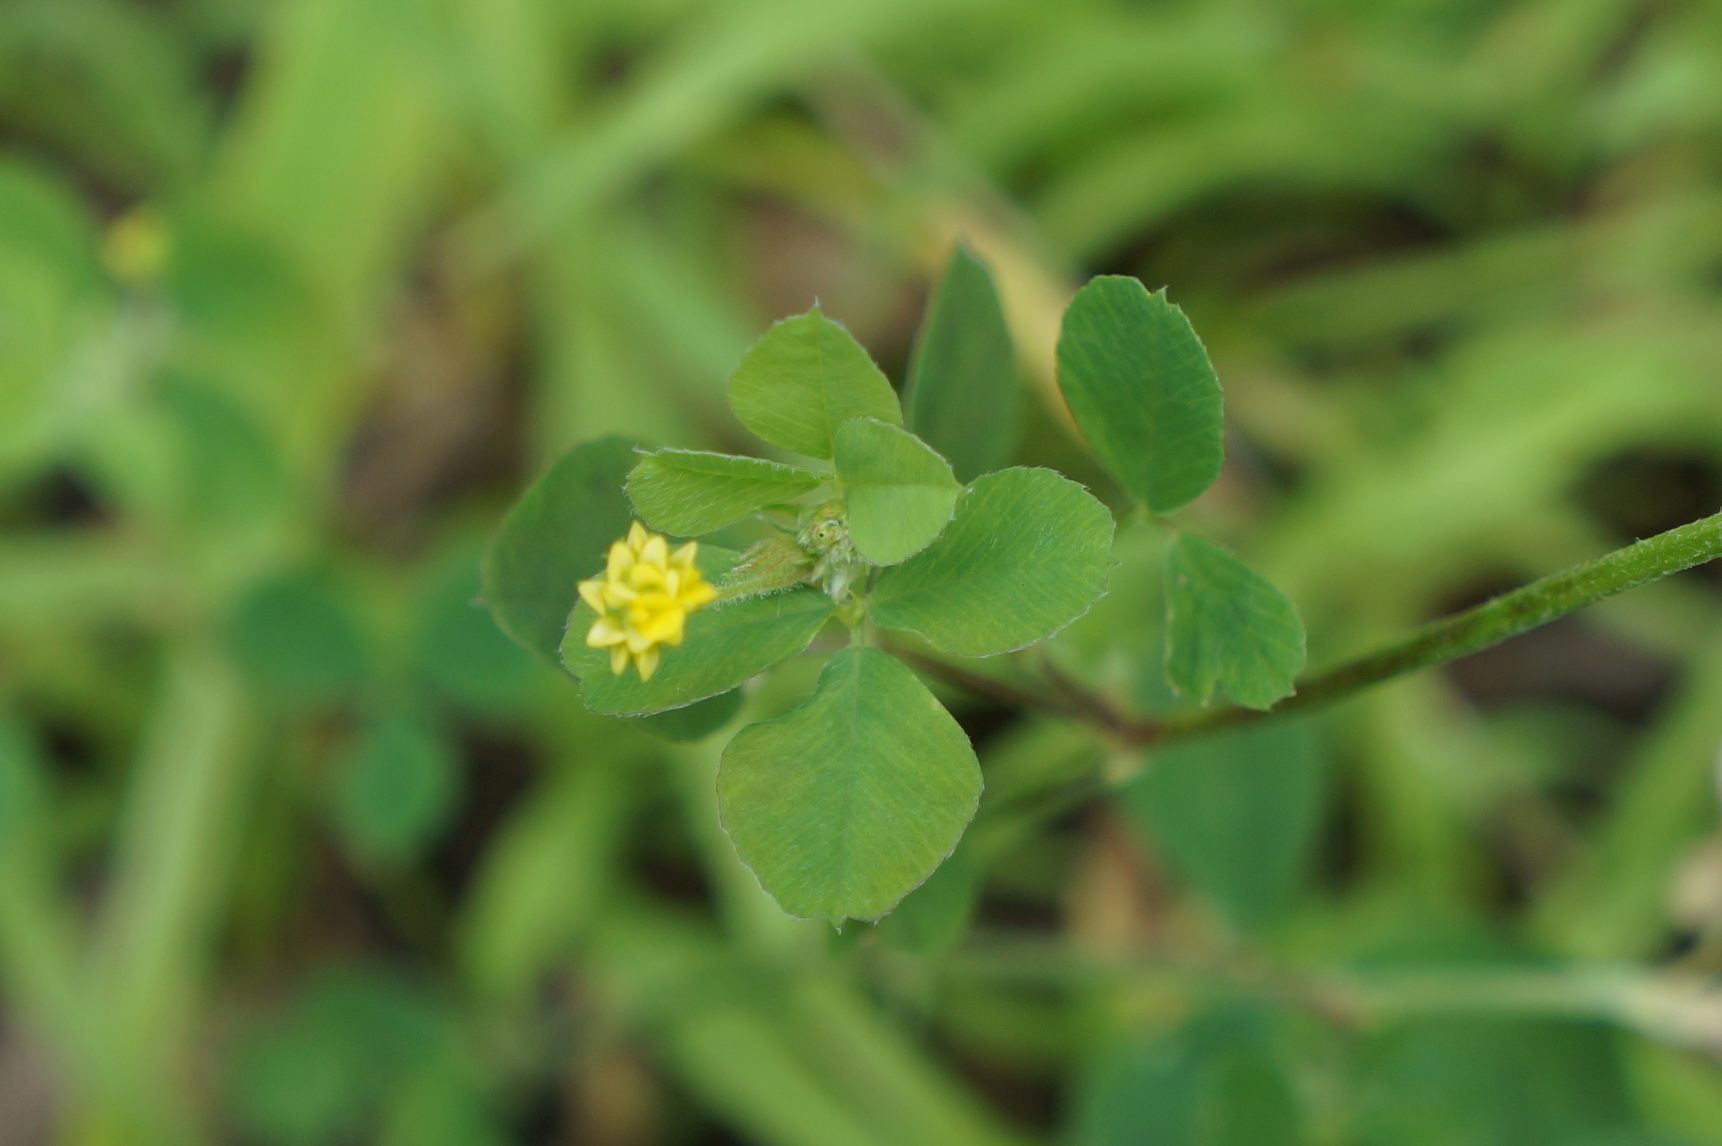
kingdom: Plantae
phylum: Tracheophyta
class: Magnoliopsida
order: Fabales
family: Fabaceae
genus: Medicago
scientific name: Medicago lupulina
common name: Black medick
